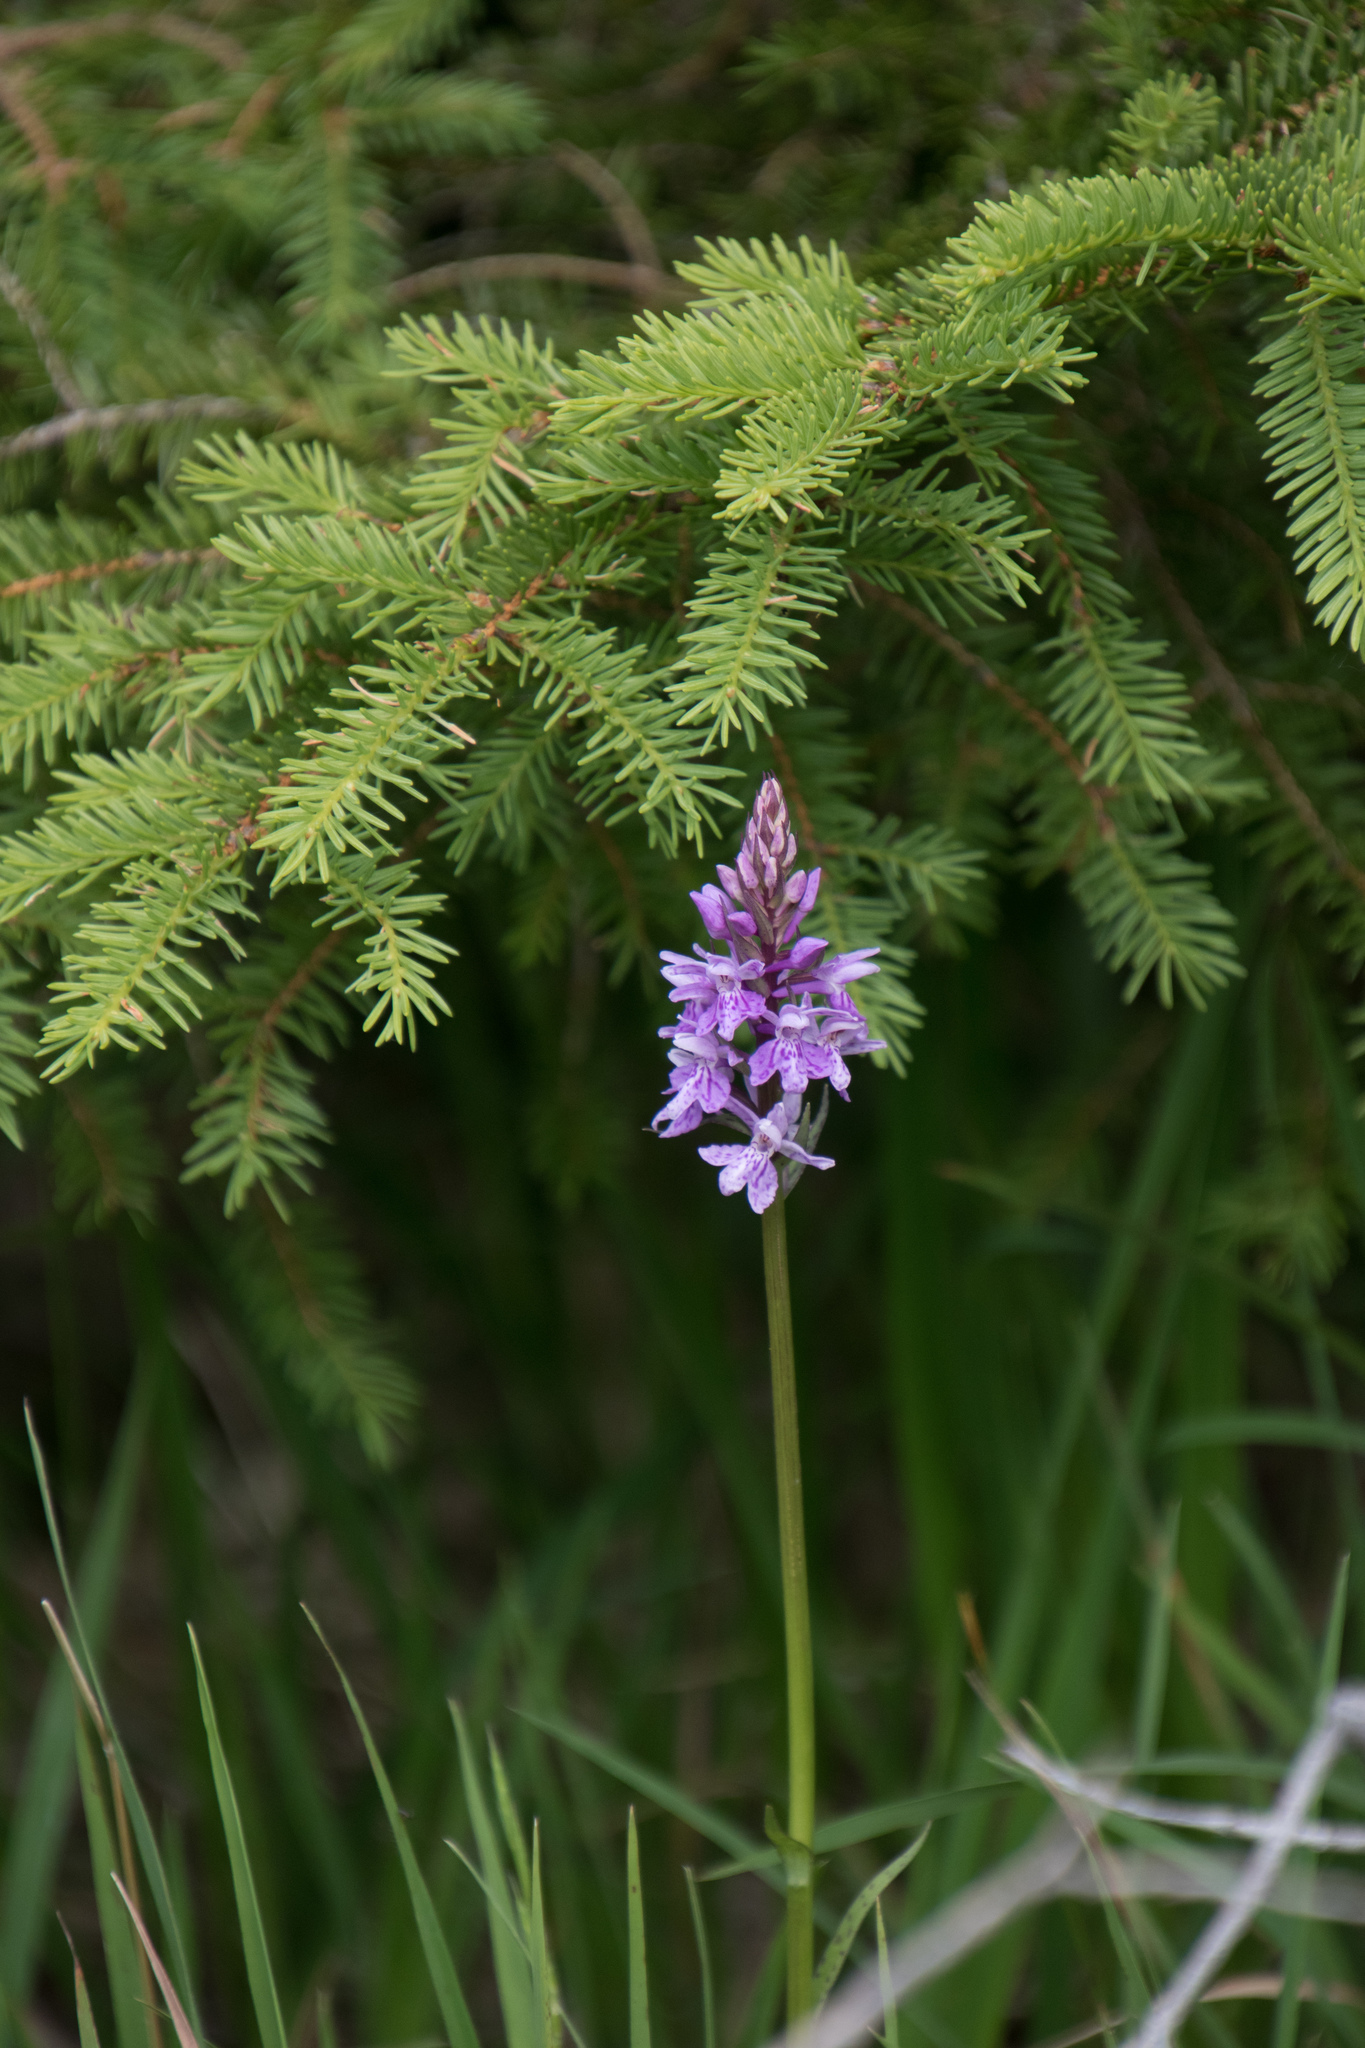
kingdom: Plantae
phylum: Tracheophyta
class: Liliopsida
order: Asparagales
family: Orchidaceae
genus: Dactylorhiza
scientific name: Dactylorhiza maculata
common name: Heath spotted-orchid
